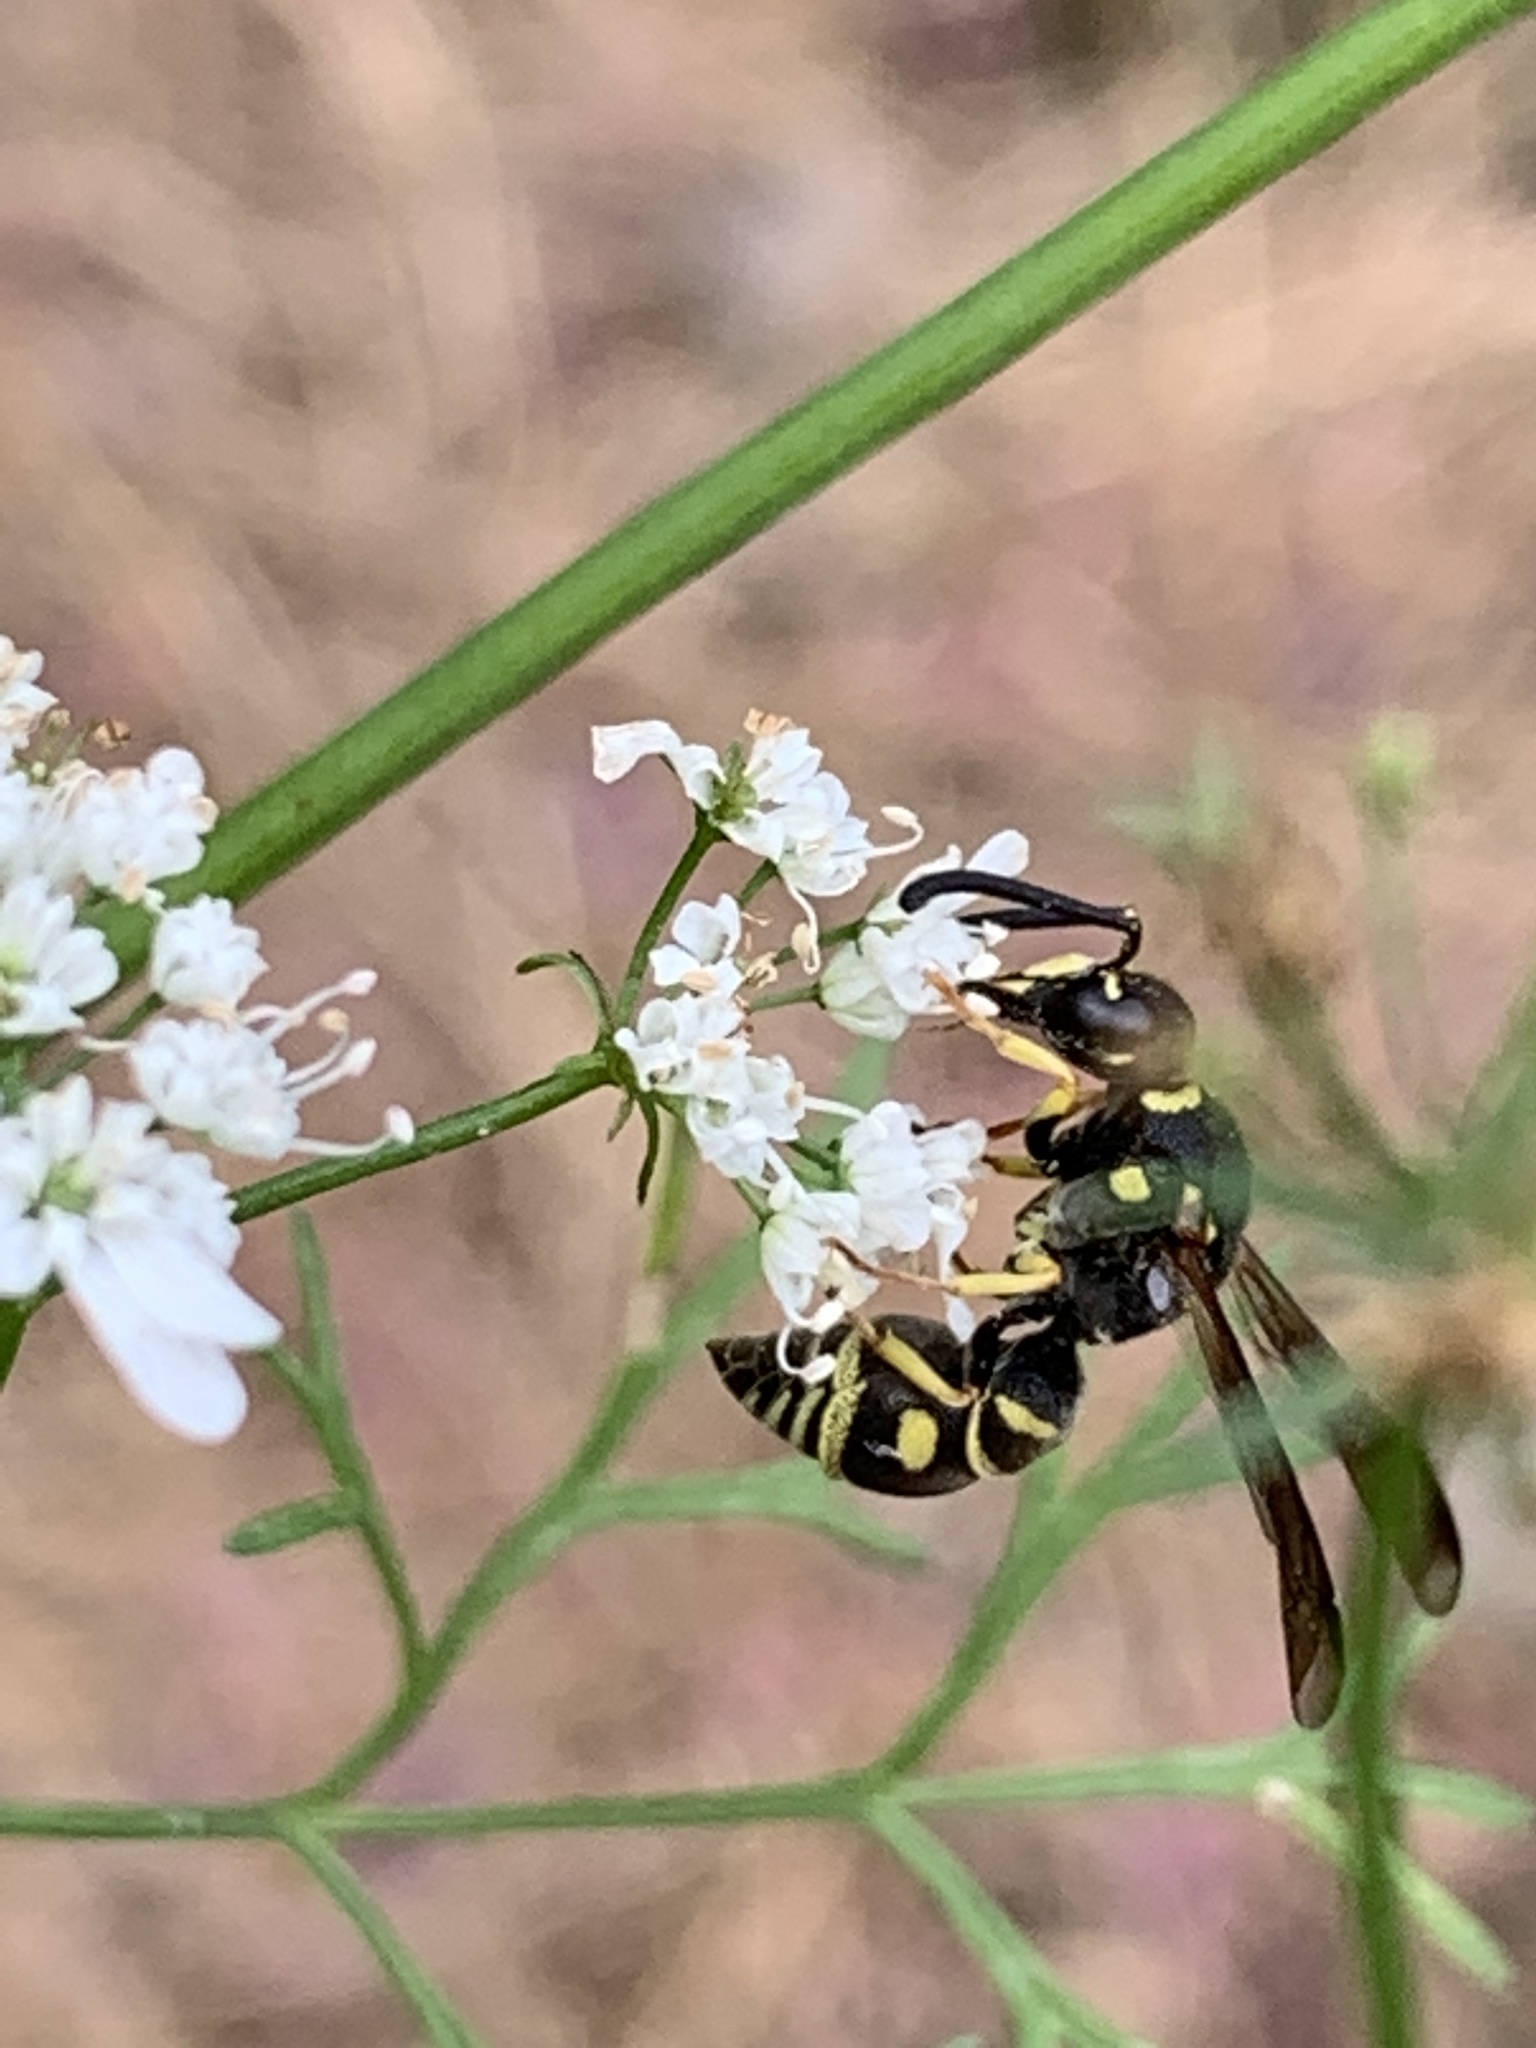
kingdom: Animalia
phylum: Arthropoda
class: Insecta
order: Hymenoptera
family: Eumenidae
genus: Parancistrocerus
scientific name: Parancistrocerus leionotus
